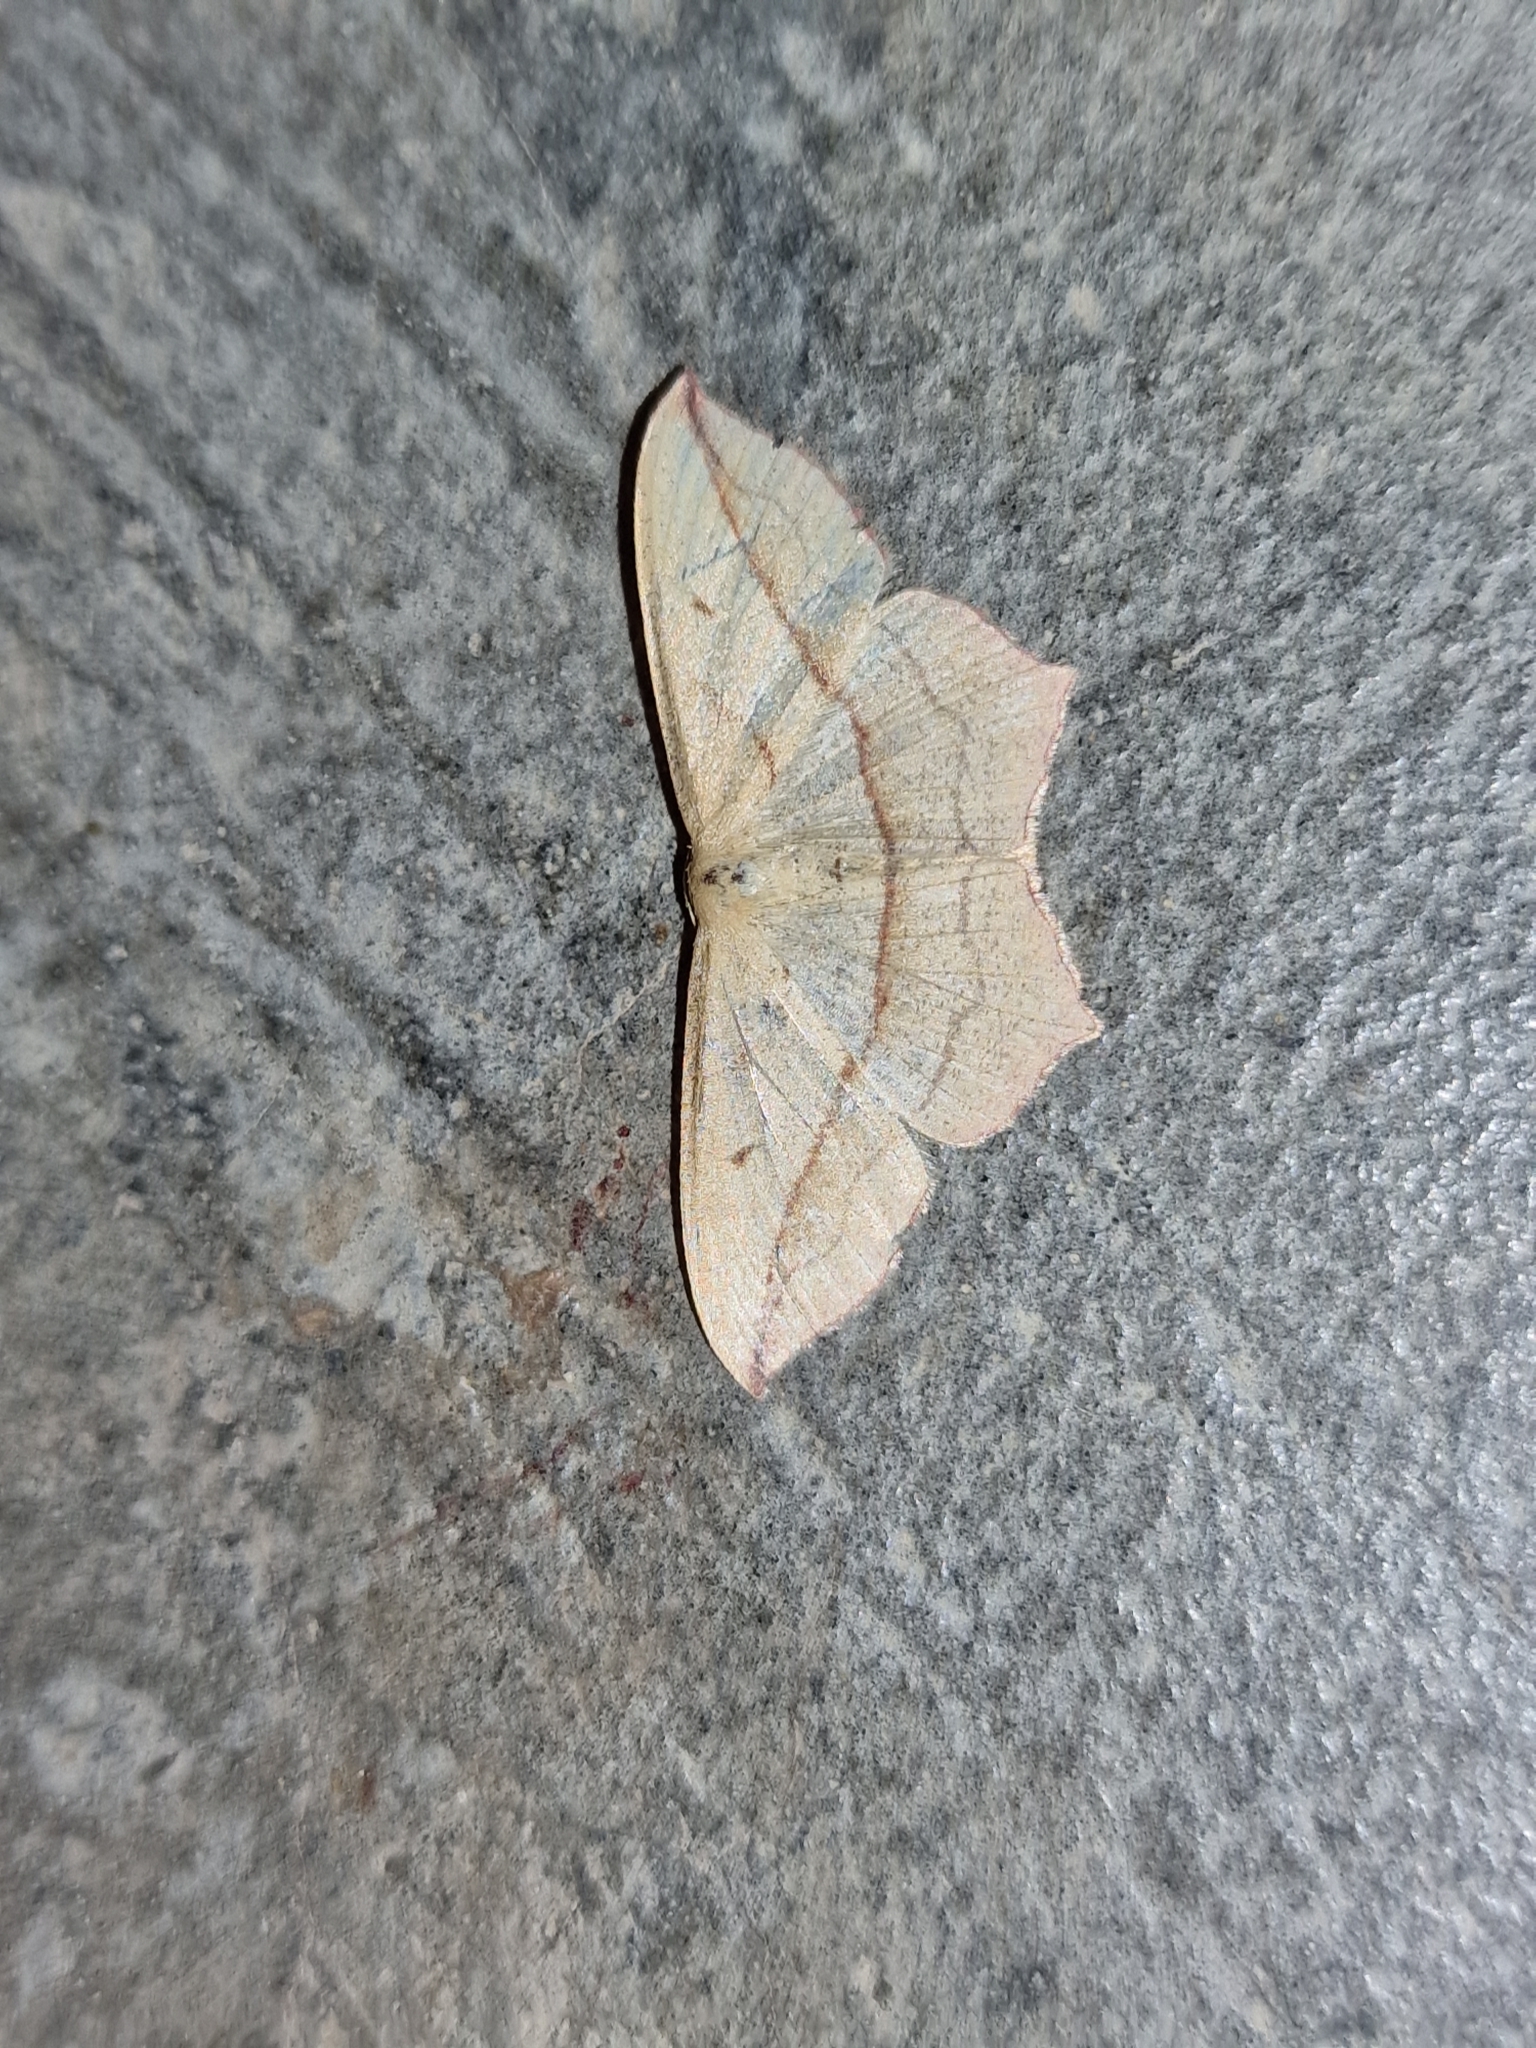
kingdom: Animalia
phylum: Arthropoda
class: Insecta
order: Lepidoptera
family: Geometridae
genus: Timandra
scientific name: Timandra comae
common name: Blood-vein
